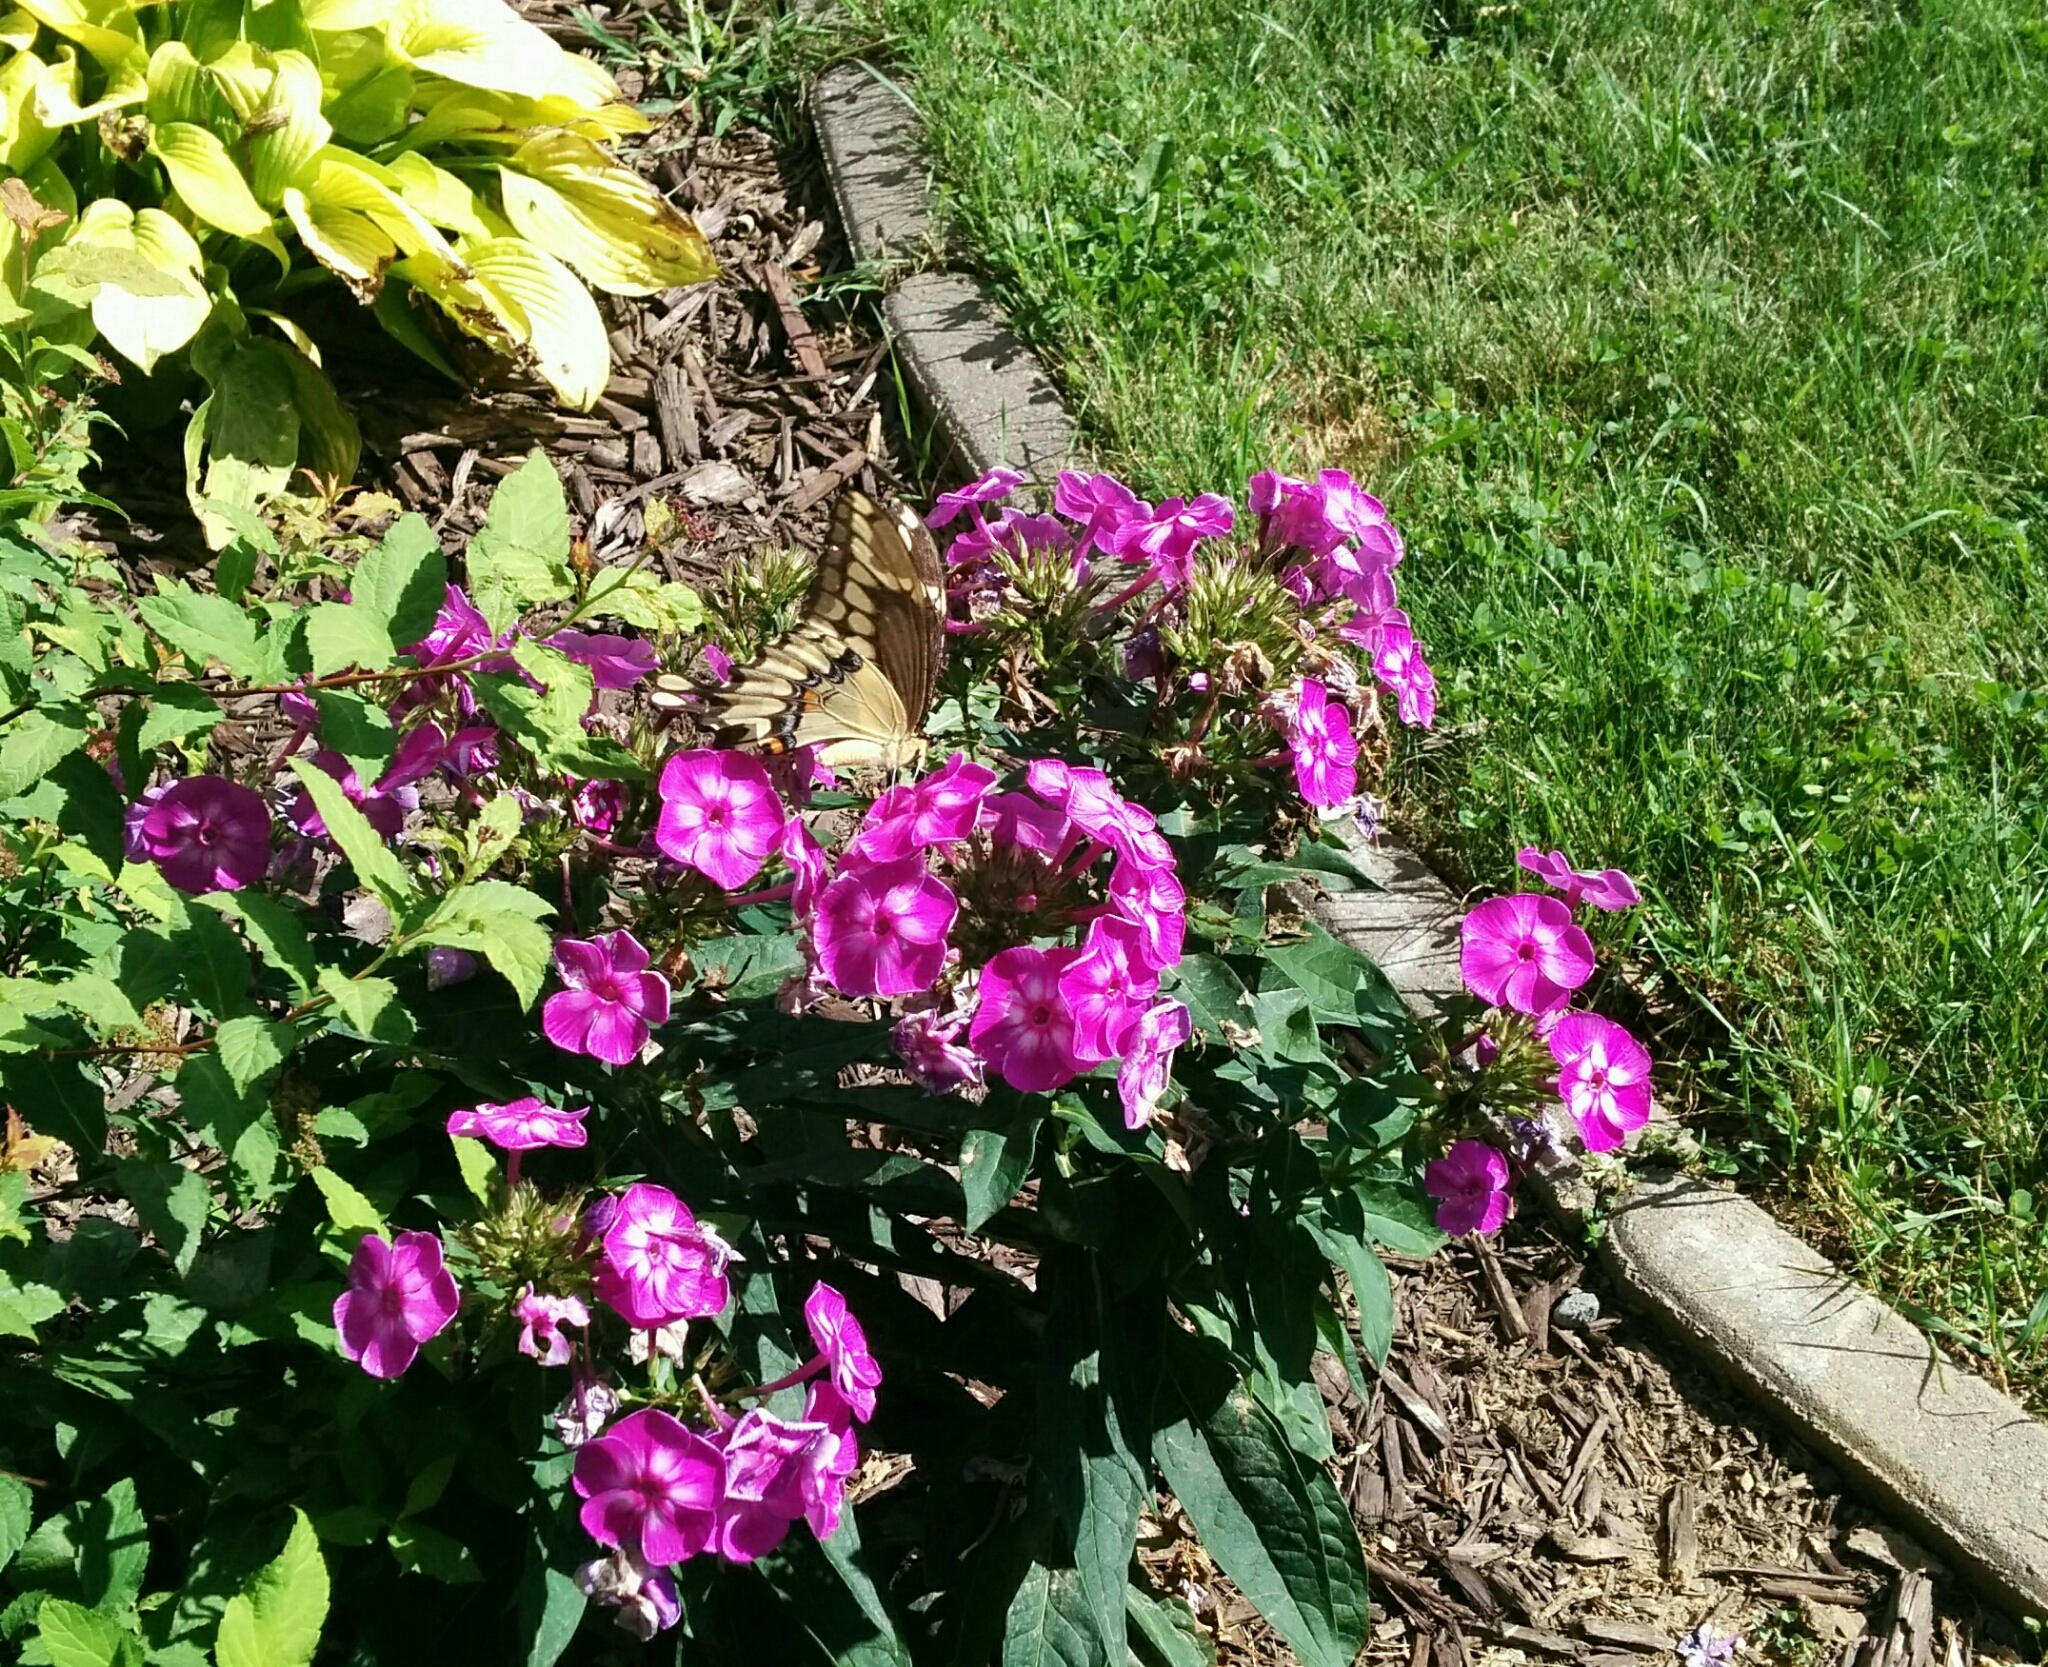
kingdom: Animalia
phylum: Arthropoda
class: Insecta
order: Lepidoptera
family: Papilionidae
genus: Papilio
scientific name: Papilio cresphontes
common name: Giant swallowtail
